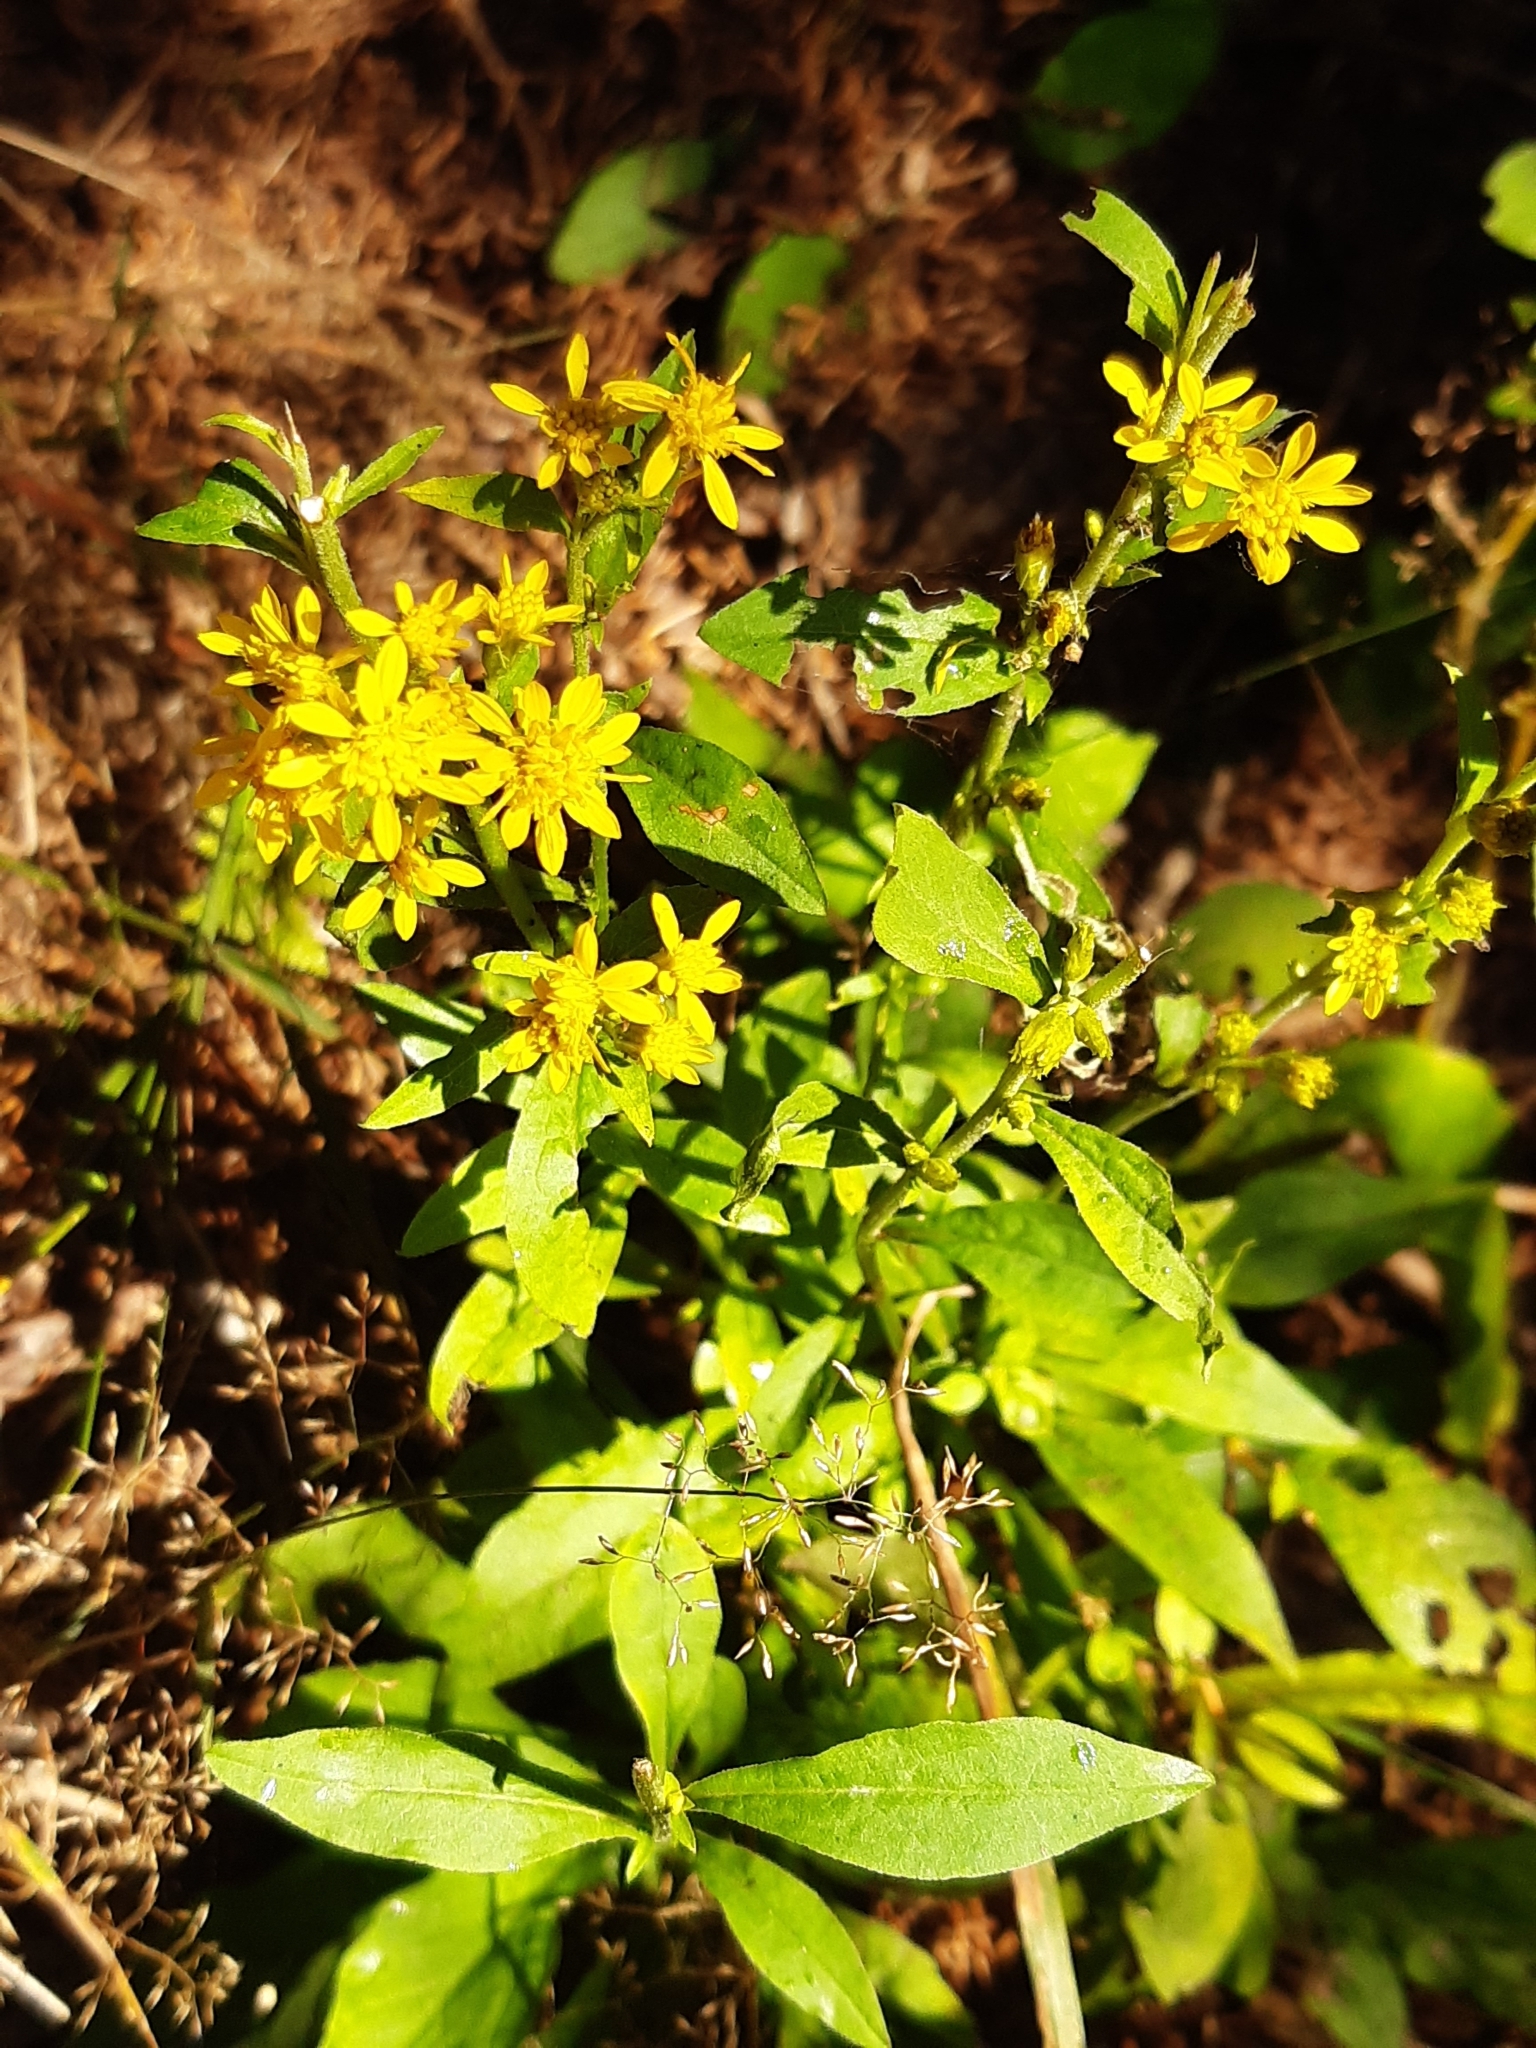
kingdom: Plantae
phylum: Tracheophyta
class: Magnoliopsida
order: Asterales
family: Asteraceae
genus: Solidago
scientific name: Solidago virgaurea
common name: Goldenrod
